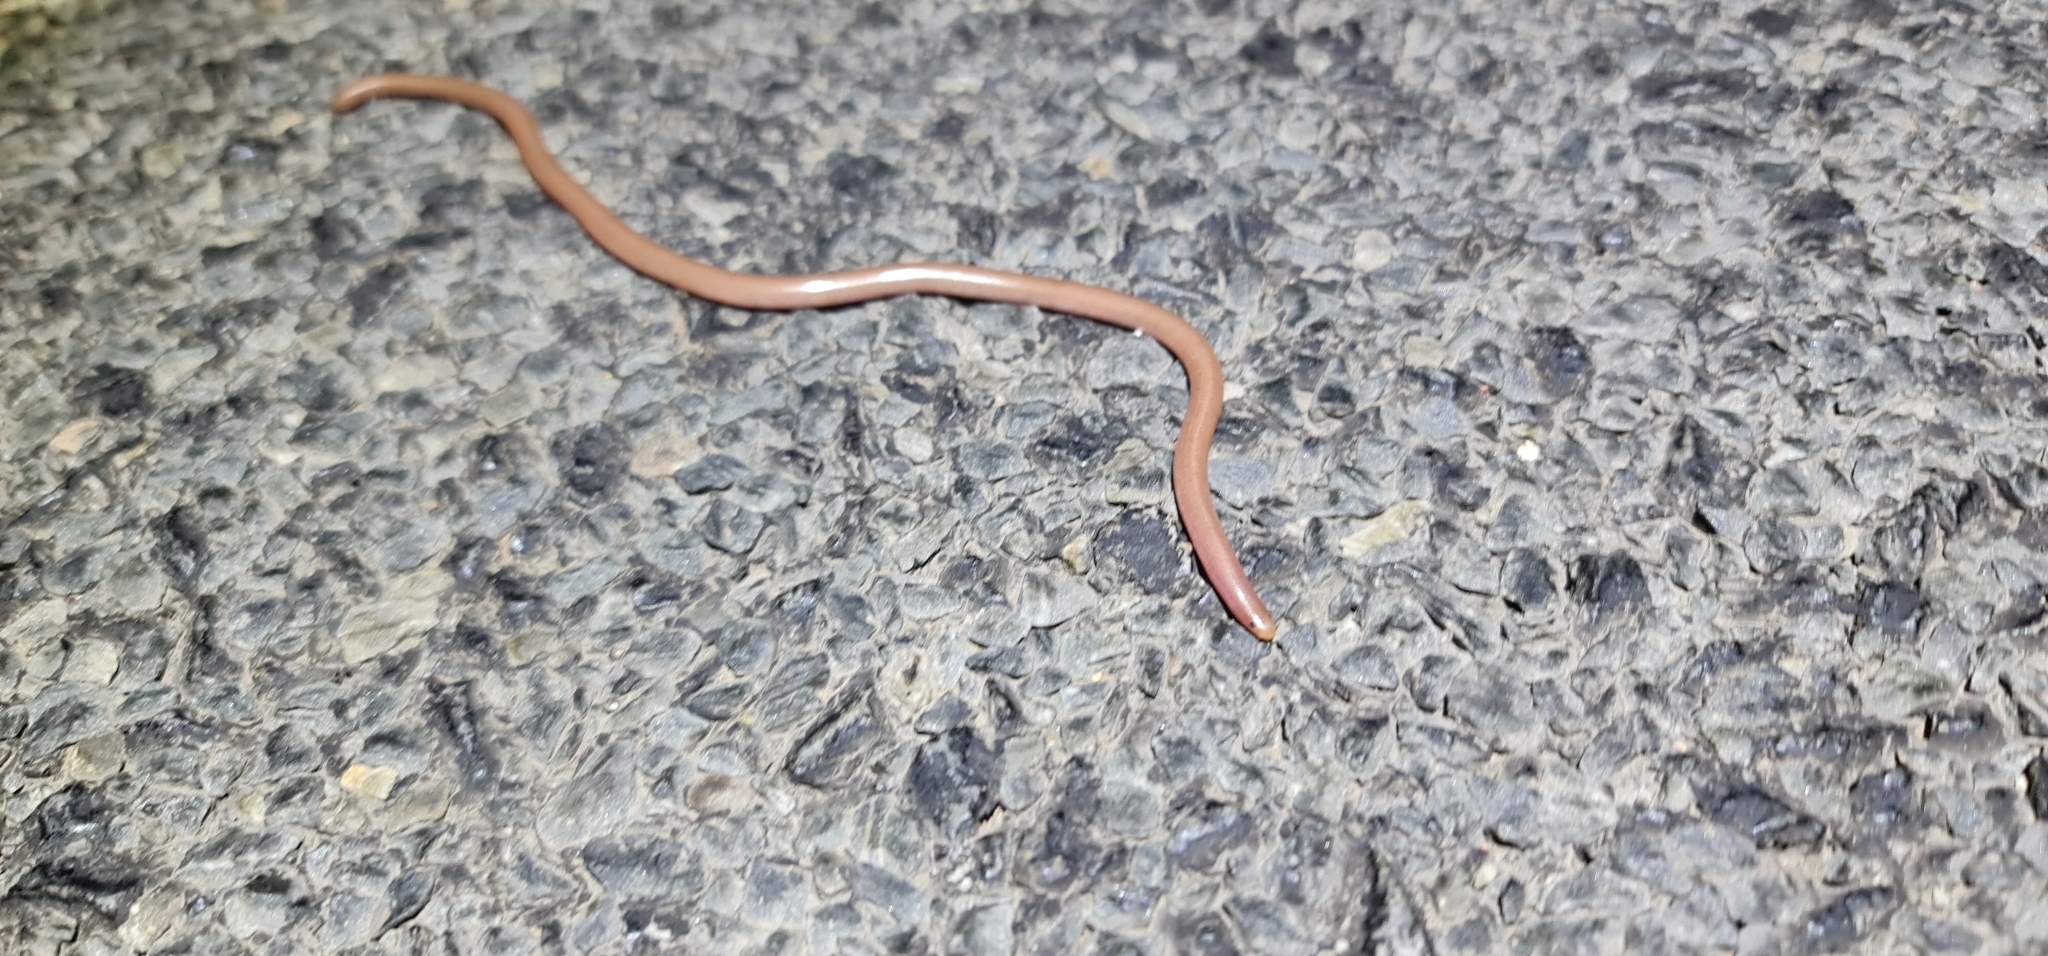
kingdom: Animalia
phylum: Chordata
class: Squamata
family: Typhlopidae
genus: Anilios
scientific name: Anilios bituberculatus
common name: Prong-snouted blind snake
